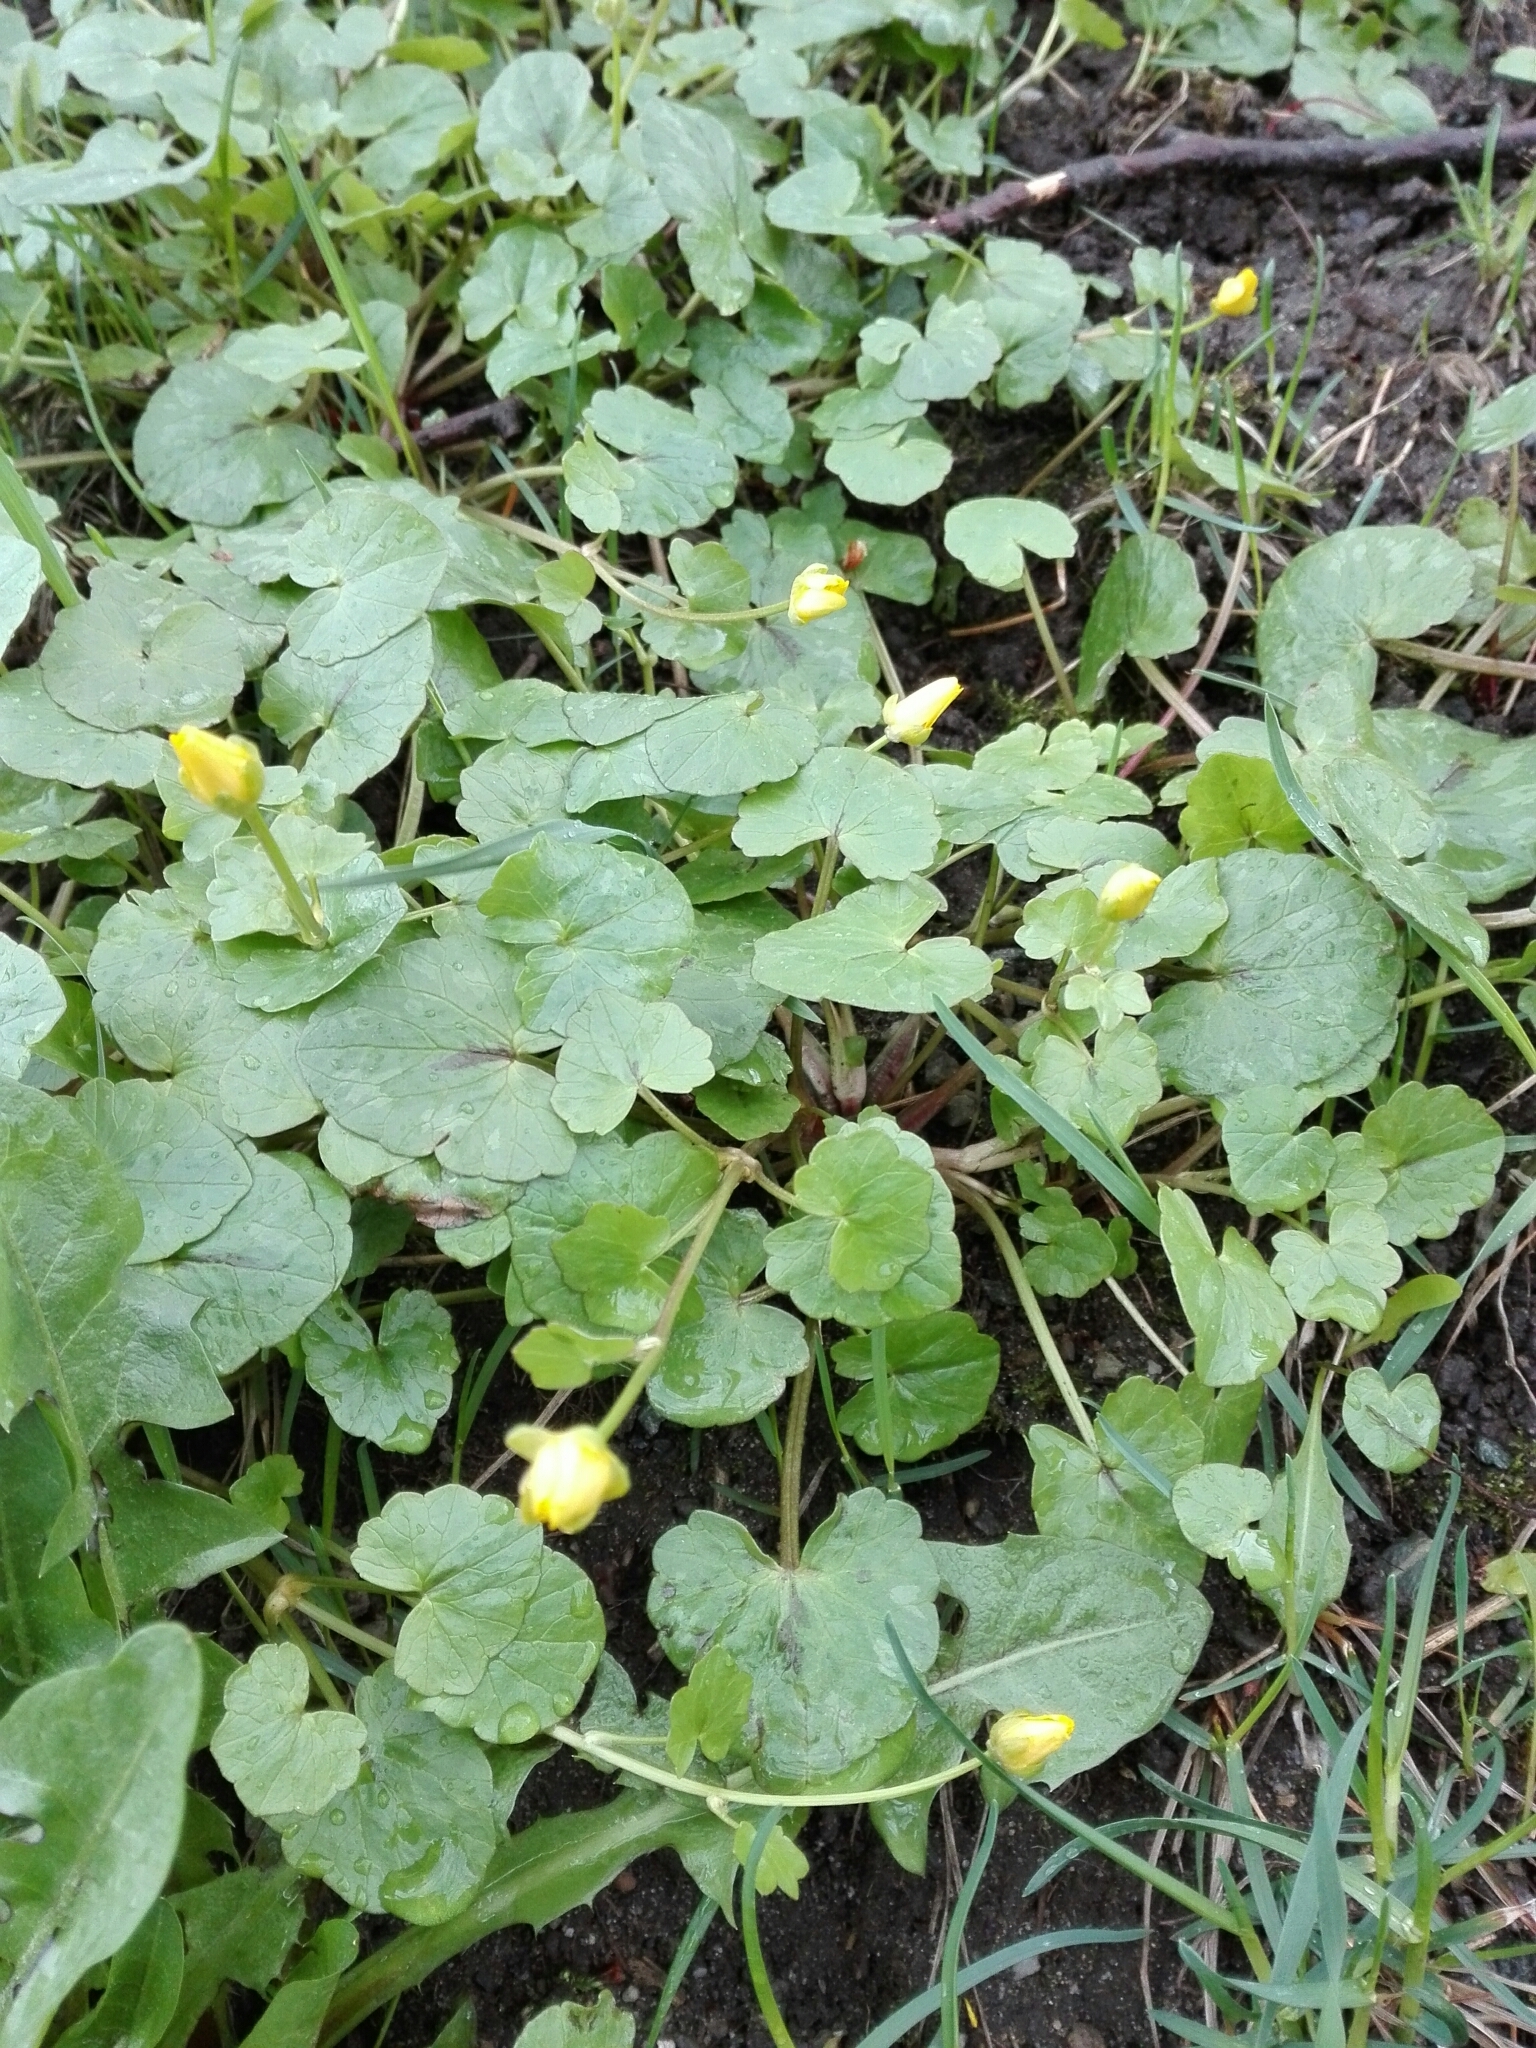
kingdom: Plantae
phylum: Tracheophyta
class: Magnoliopsida
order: Ranunculales
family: Ranunculaceae
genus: Ficaria
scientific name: Ficaria verna
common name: Lesser celandine
